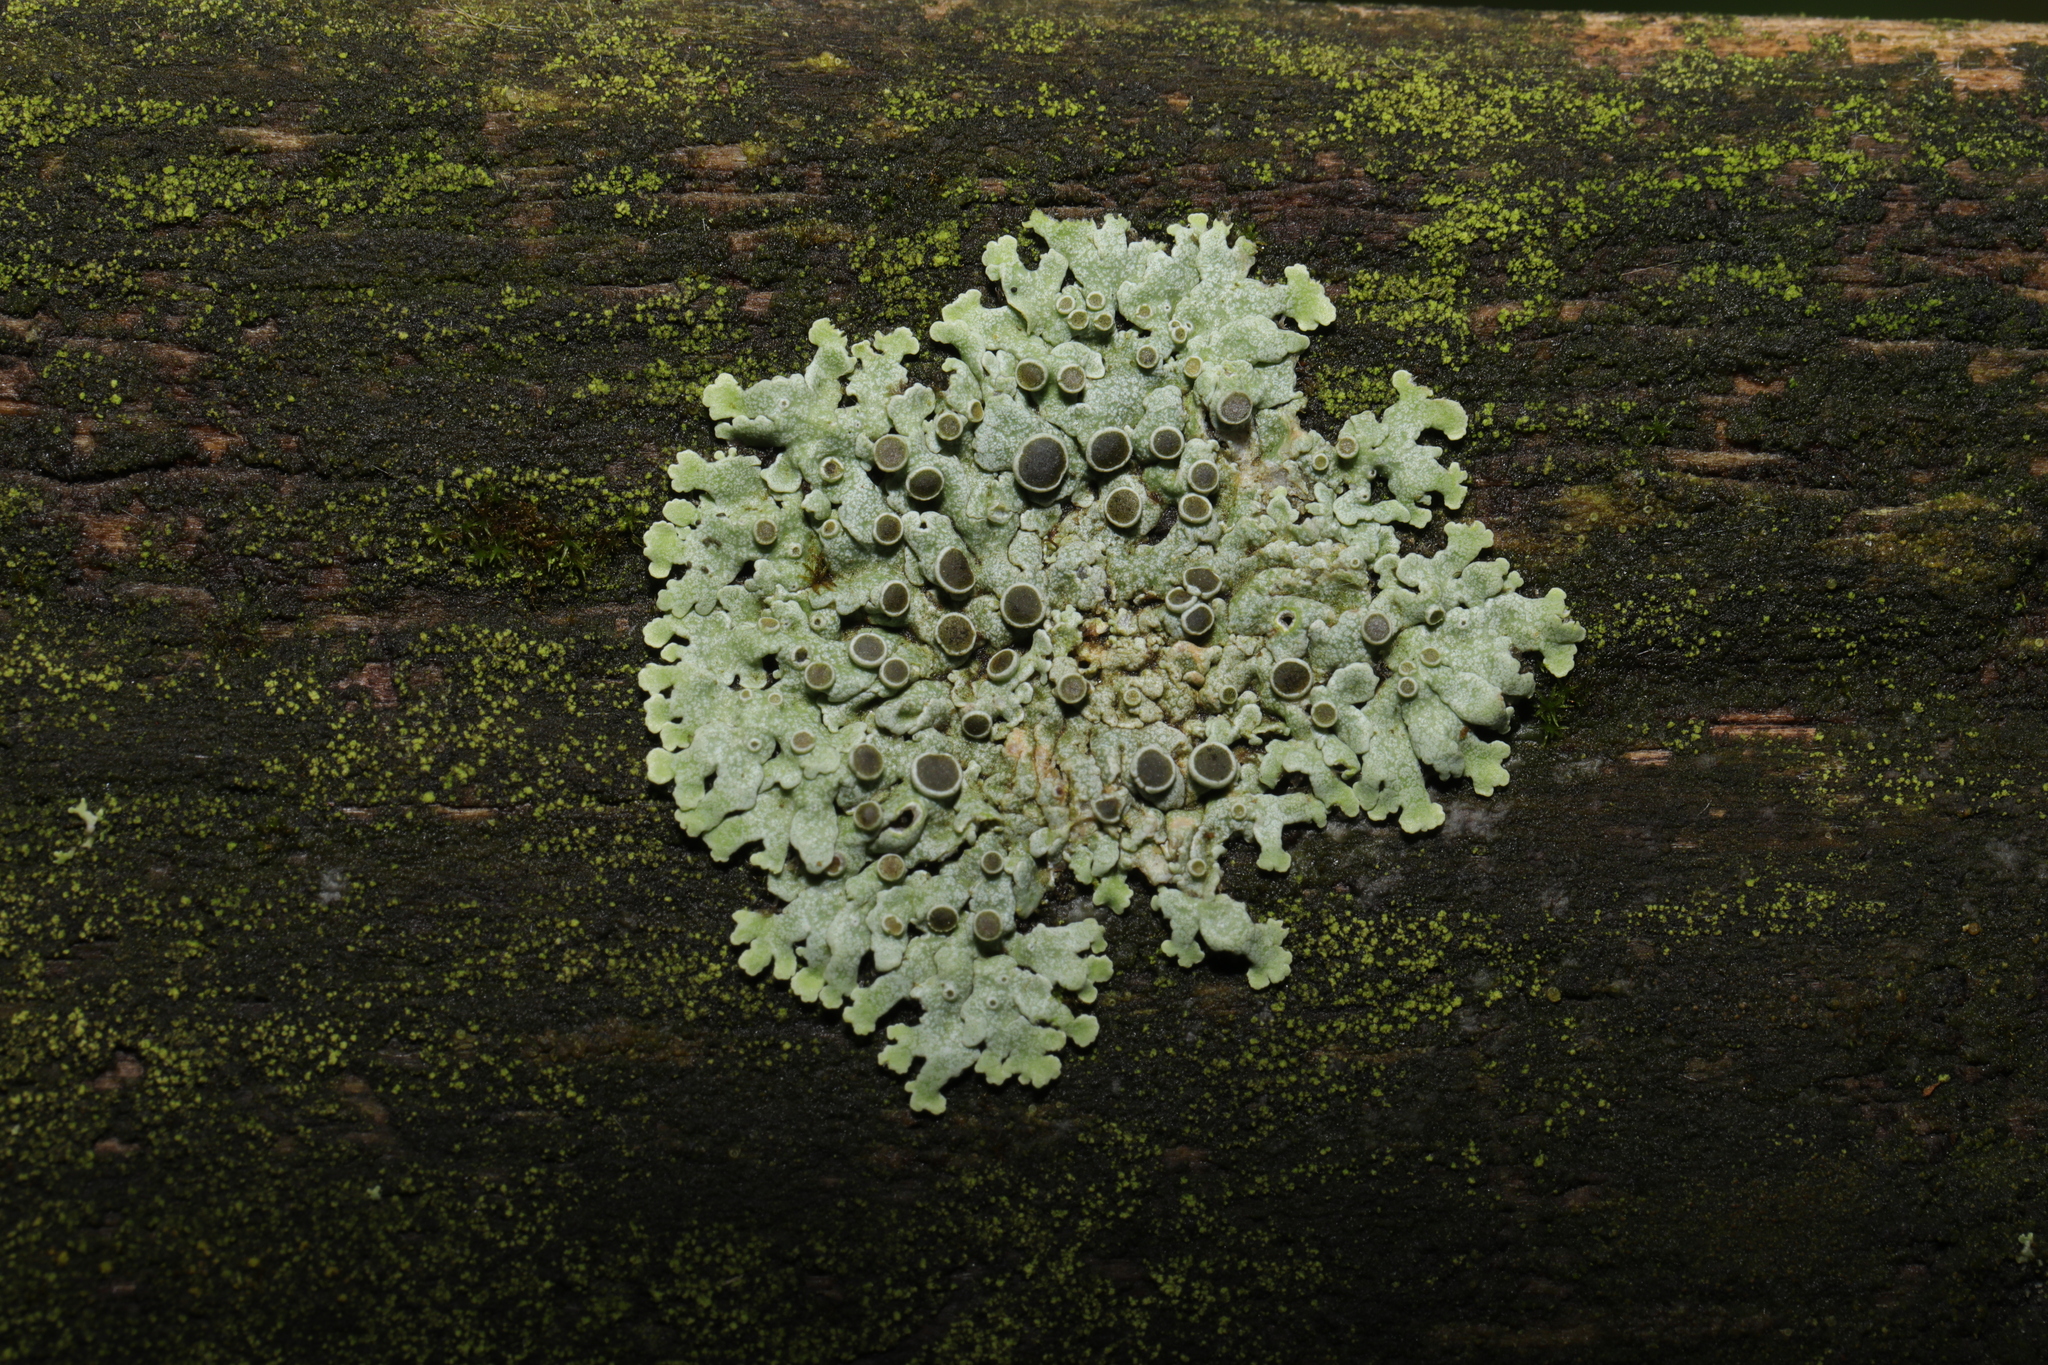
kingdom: Fungi
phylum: Ascomycota
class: Lecanoromycetes
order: Caliciales
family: Physciaceae
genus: Physcia
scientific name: Physcia aipolia
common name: Hoary rosette lichen
